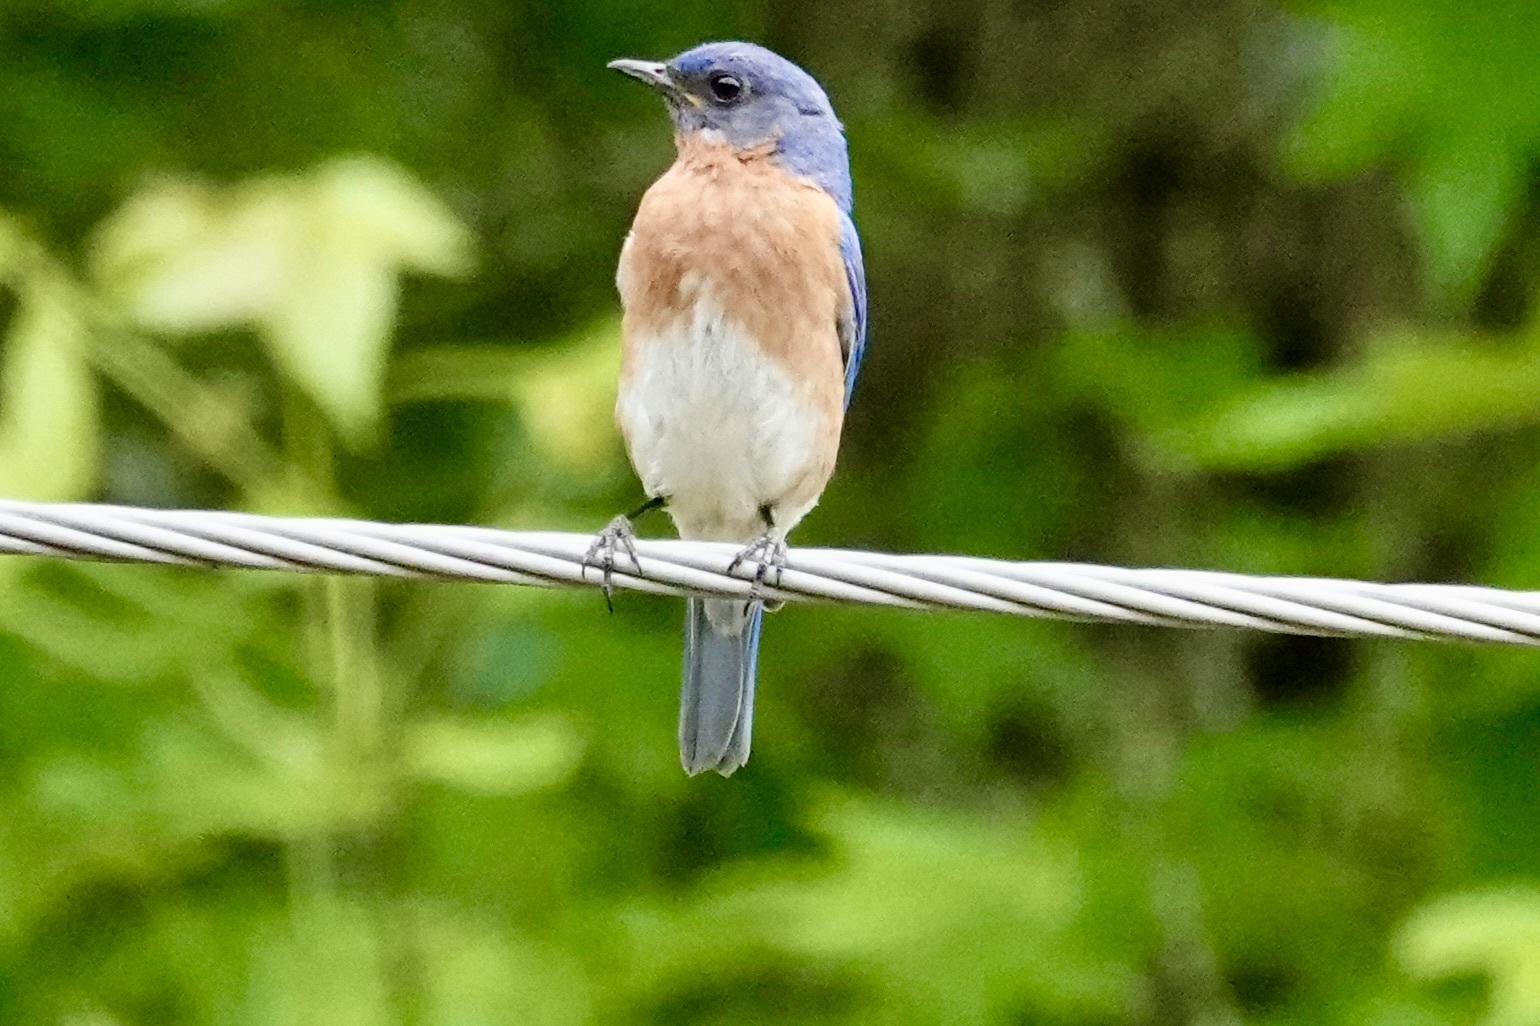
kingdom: Animalia
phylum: Chordata
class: Aves
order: Passeriformes
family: Turdidae
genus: Sialia
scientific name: Sialia sialis
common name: Eastern bluebird
